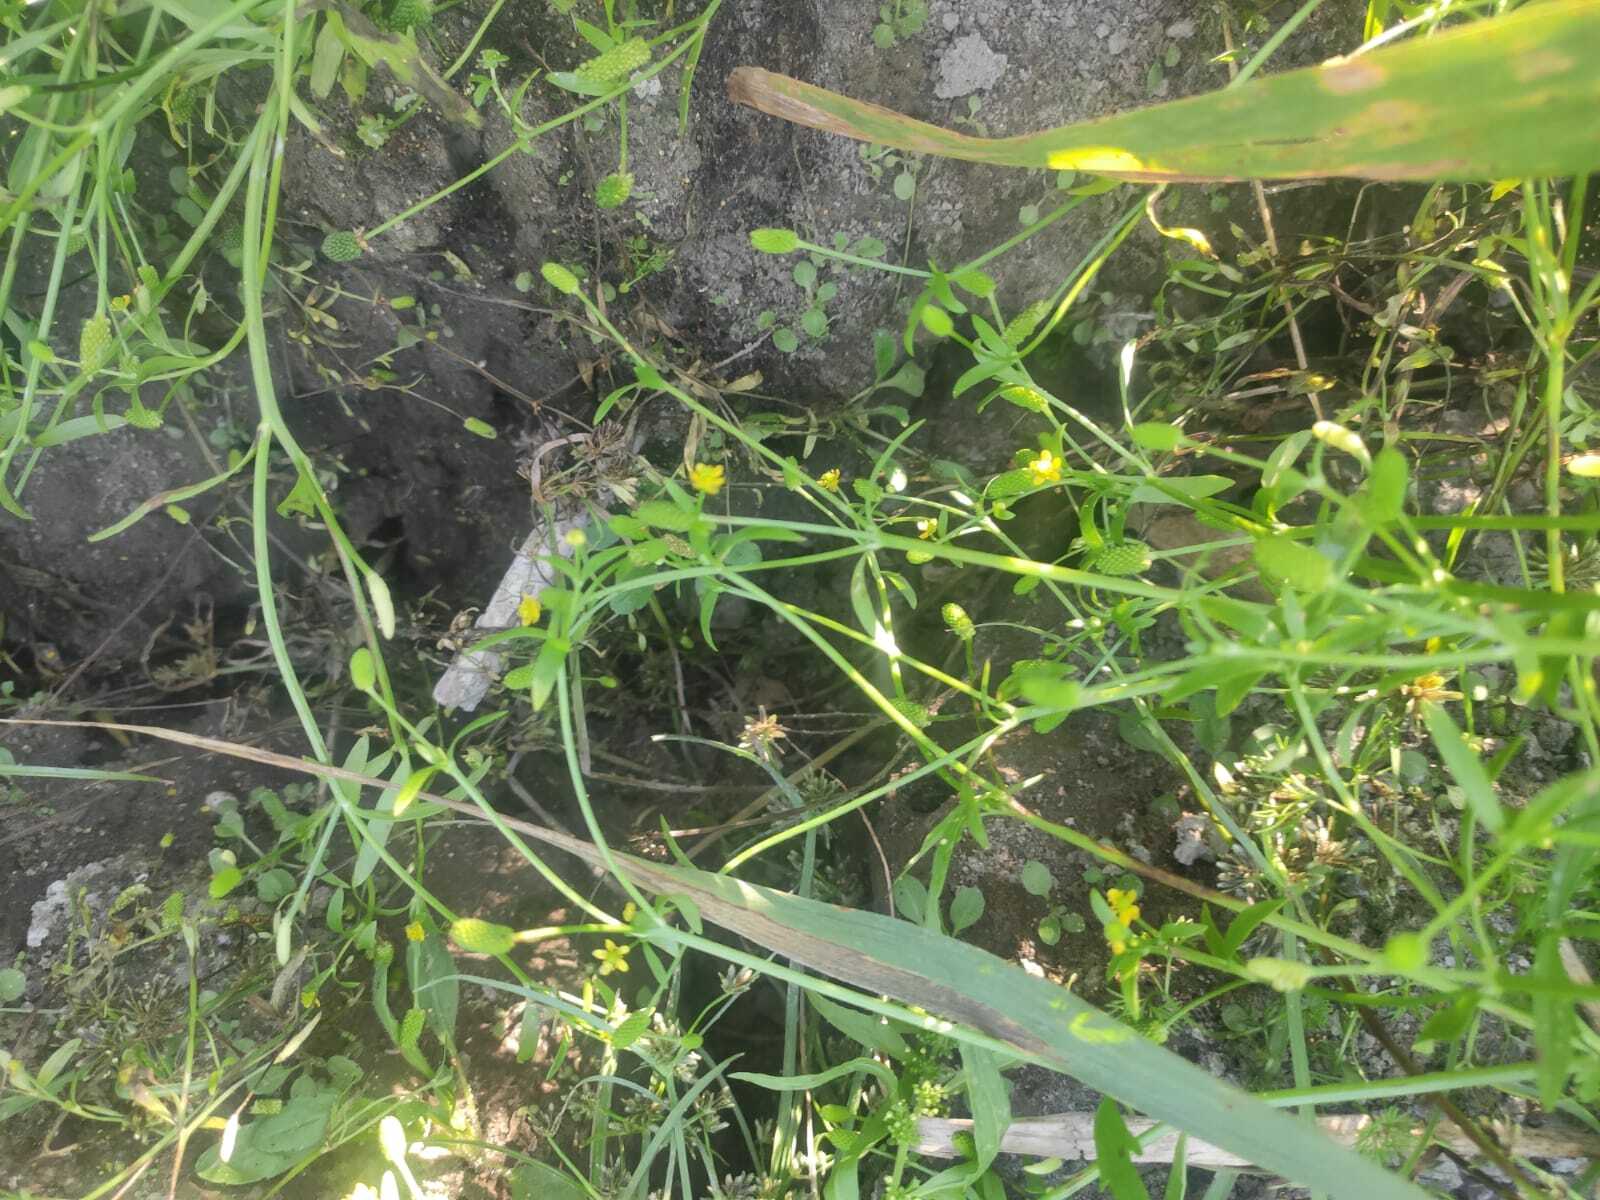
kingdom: Plantae
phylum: Tracheophyta
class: Magnoliopsida
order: Ranunculales
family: Ranunculaceae
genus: Ranunculus
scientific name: Ranunculus sceleratus
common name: Celery-leaved buttercup
